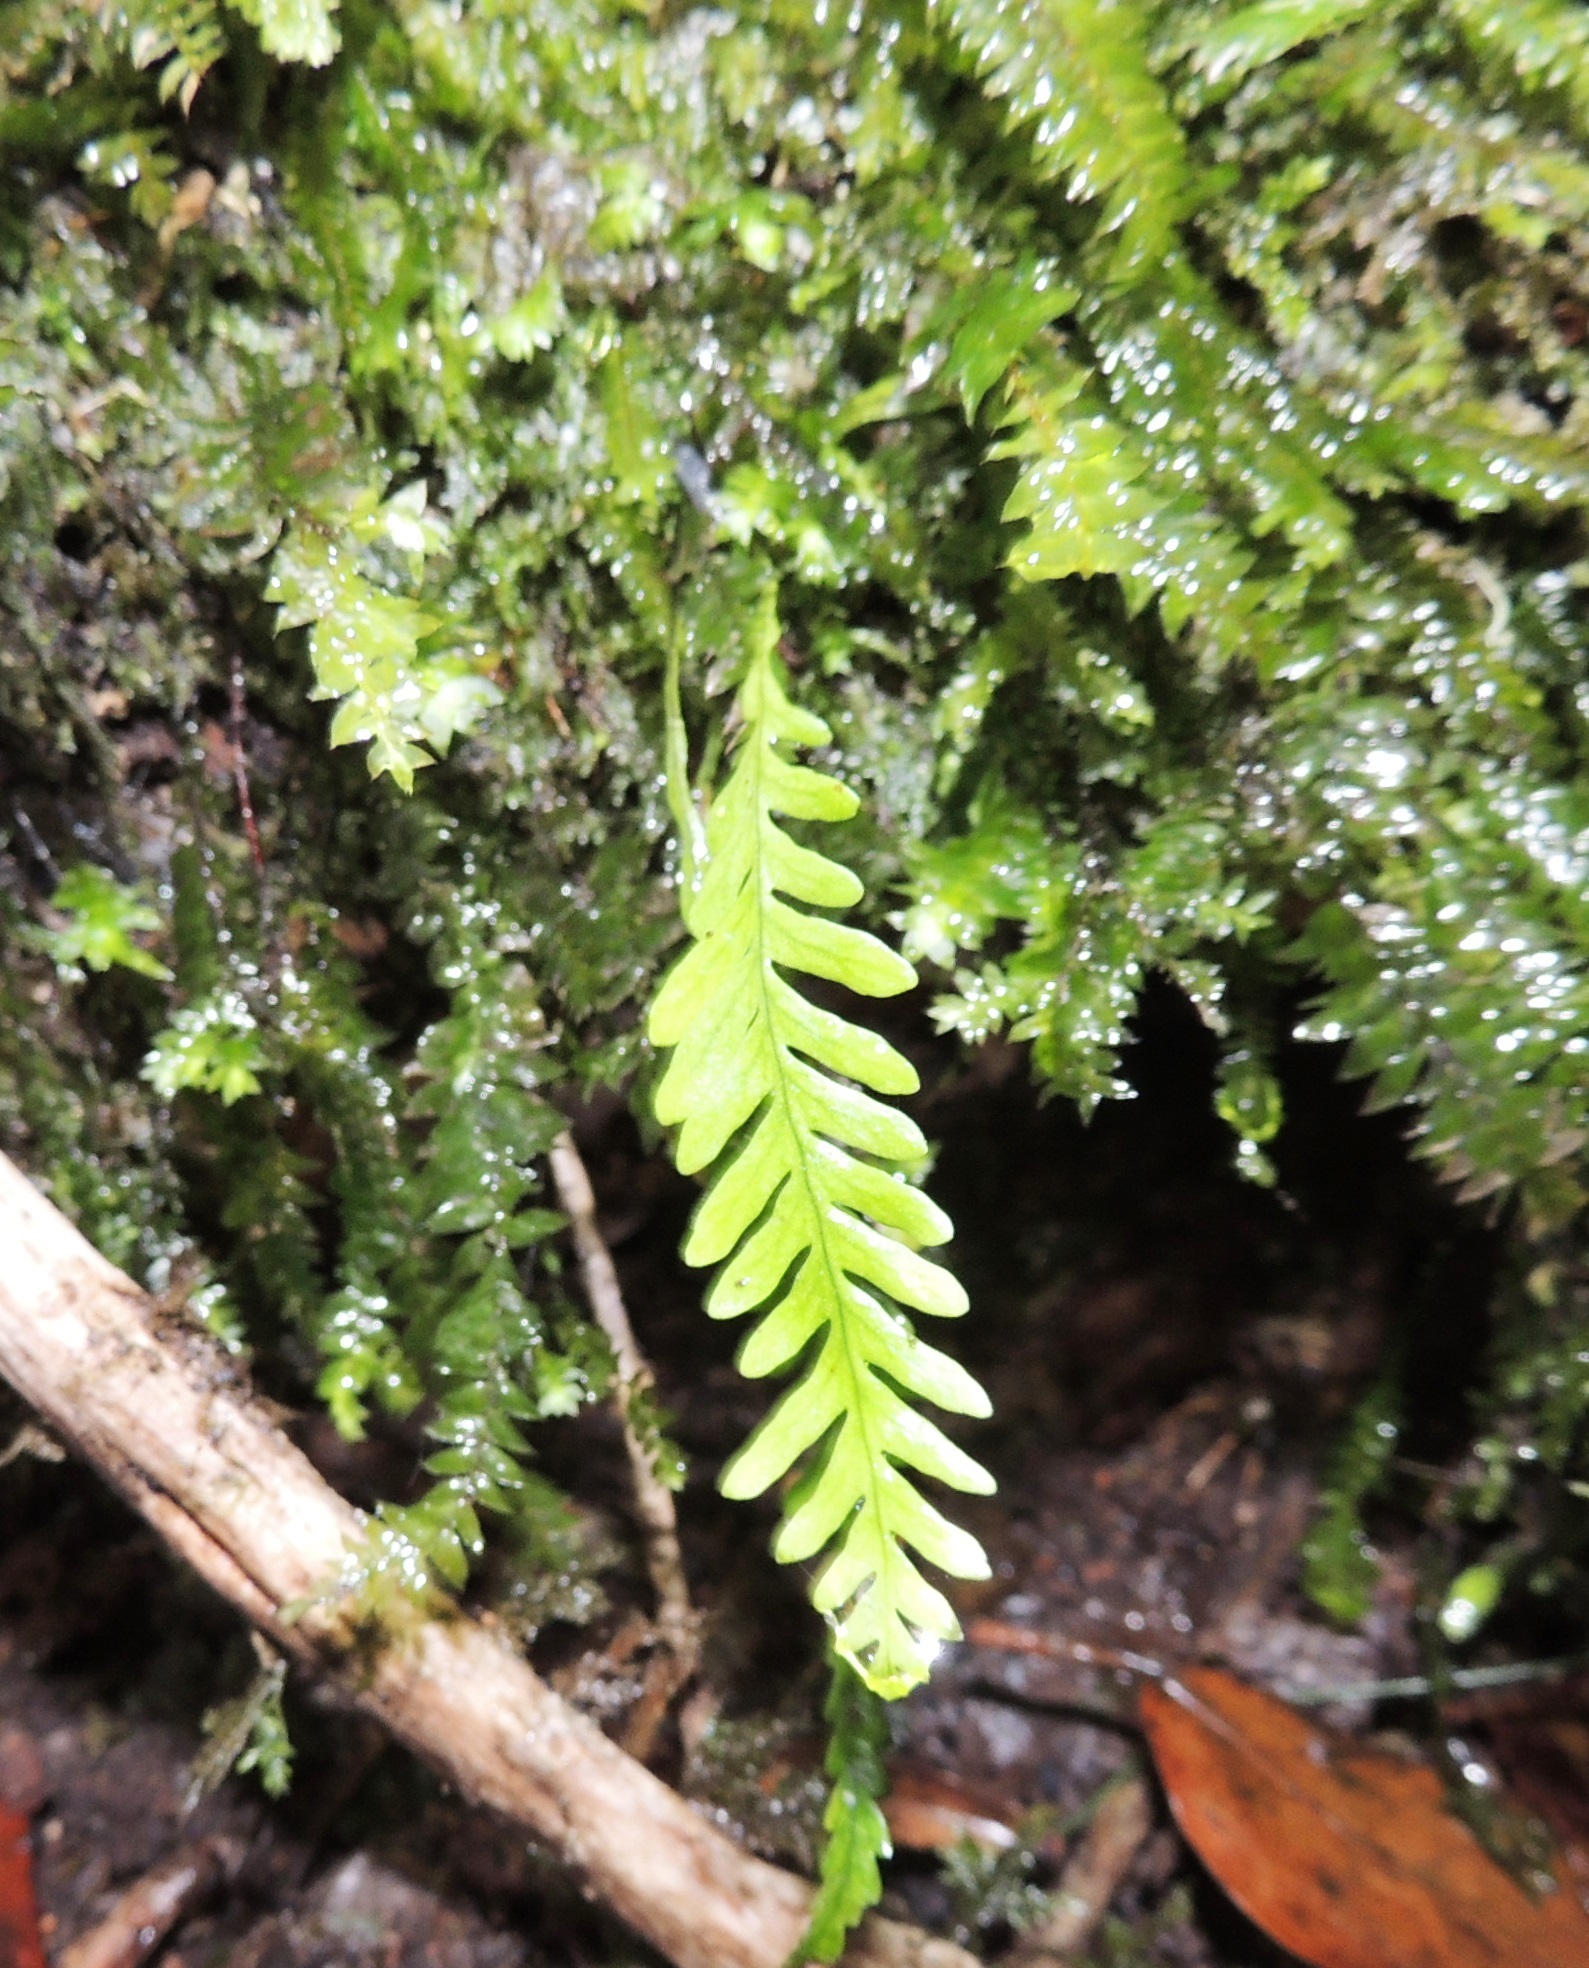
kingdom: Plantae
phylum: Tracheophyta
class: Polypodiopsida
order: Polypodiales
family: Polypodiaceae
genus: Notogrammitis
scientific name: Notogrammitis heterophylla
